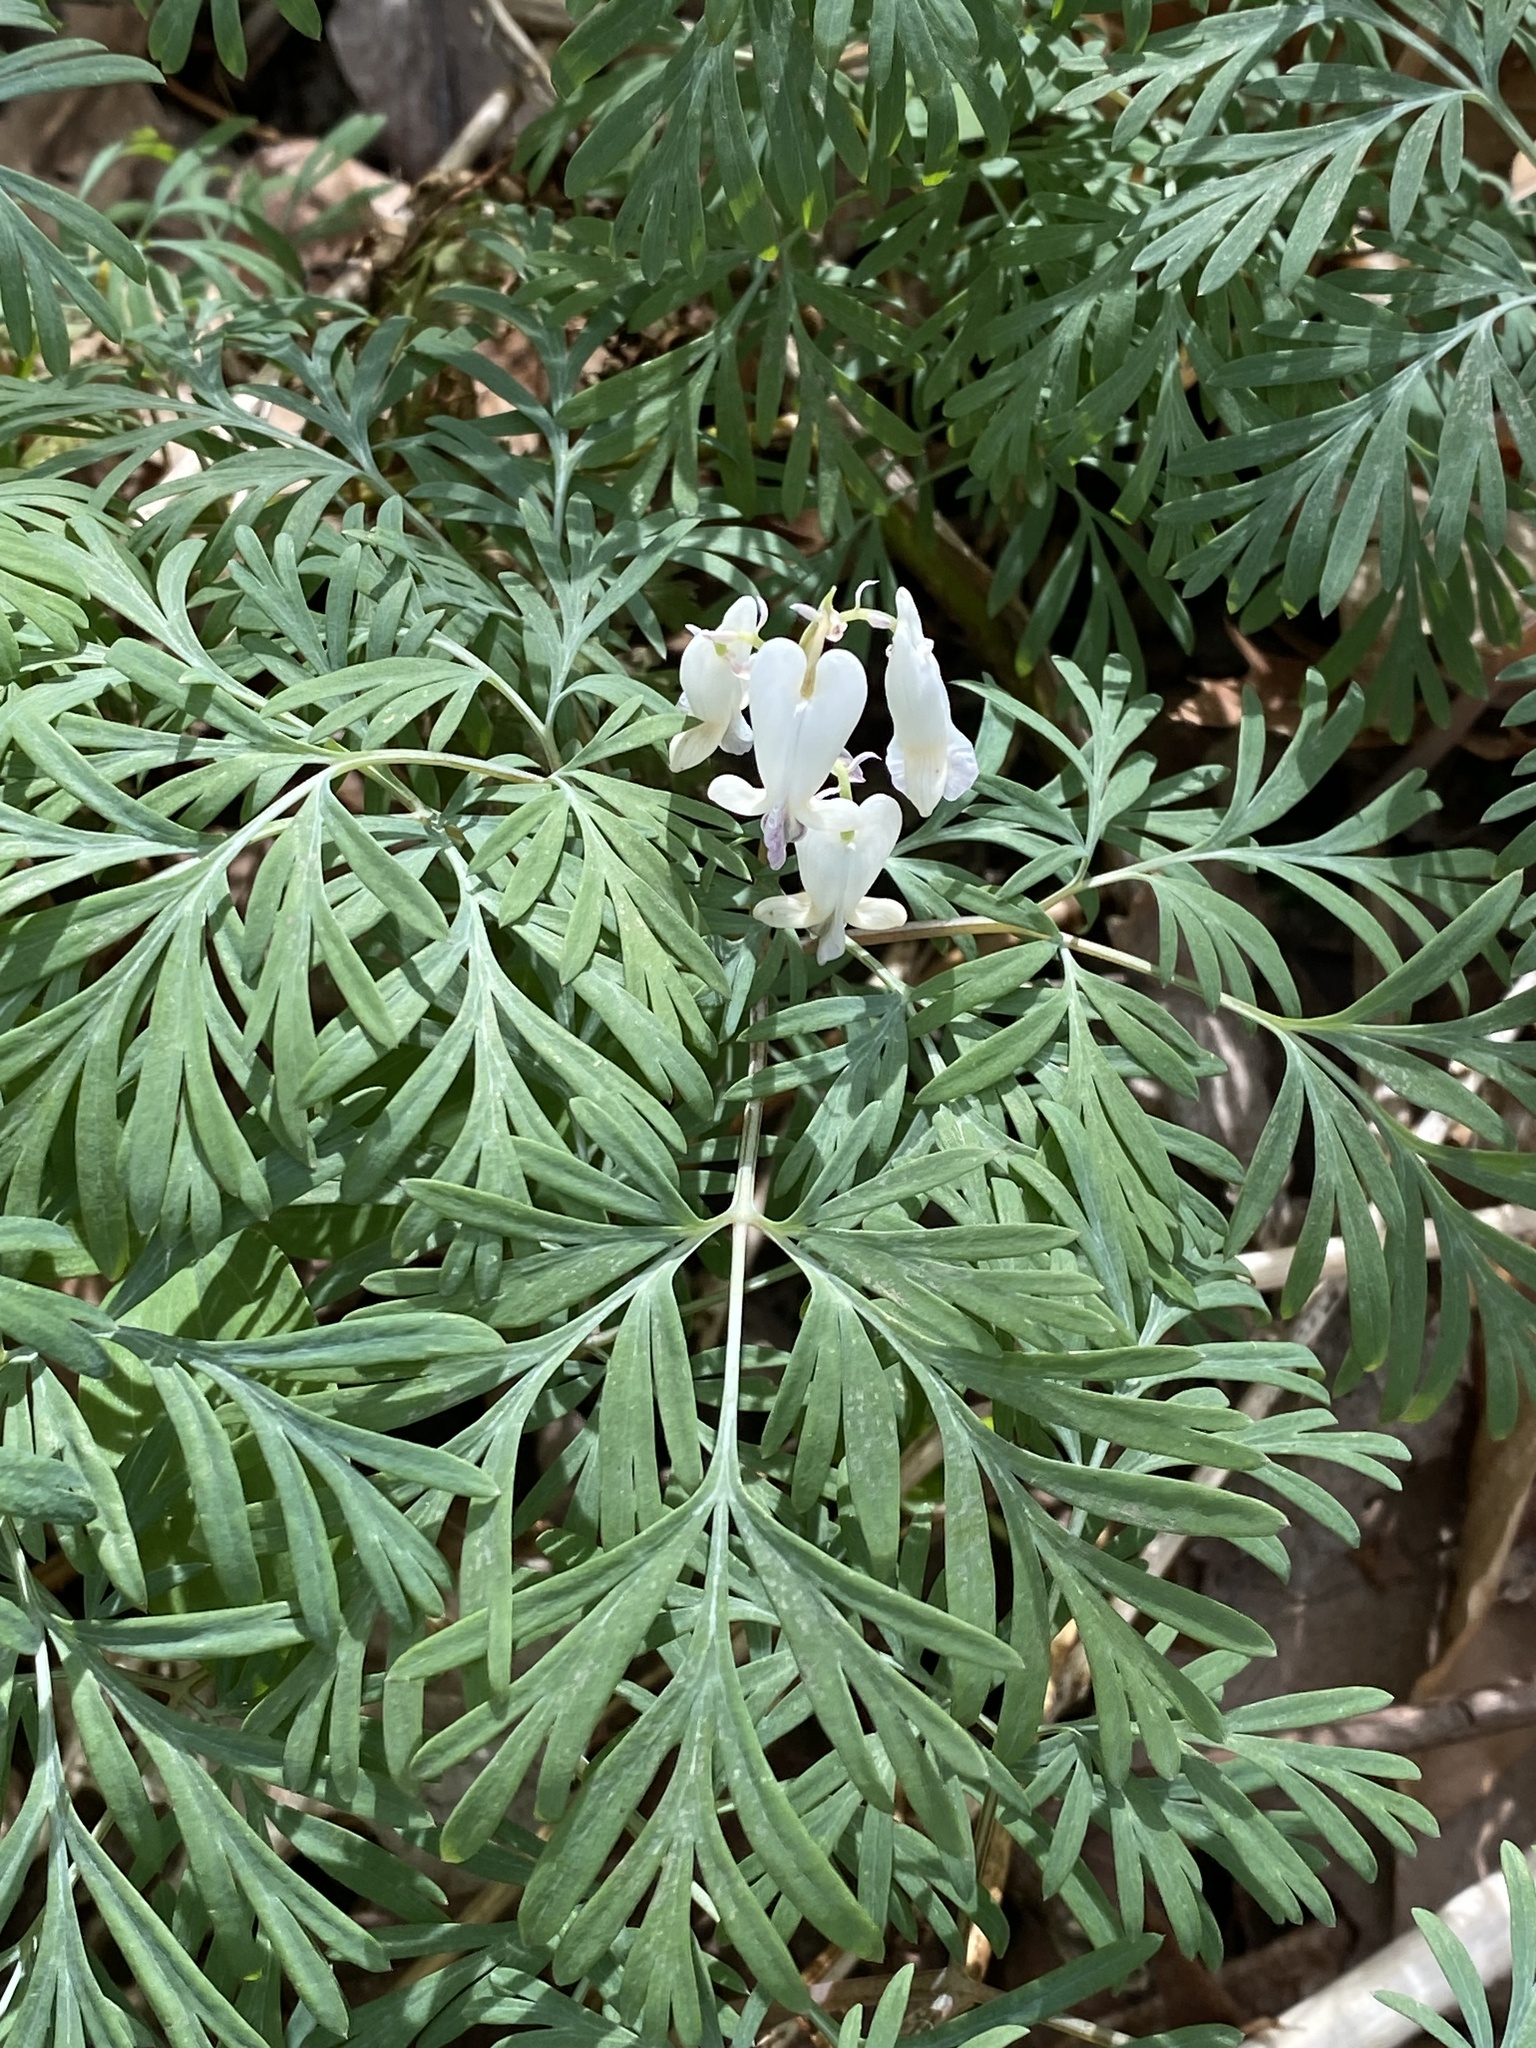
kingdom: Plantae
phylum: Tracheophyta
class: Magnoliopsida
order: Ranunculales
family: Papaveraceae
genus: Dicentra
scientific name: Dicentra canadensis
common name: Squirrel-corn
